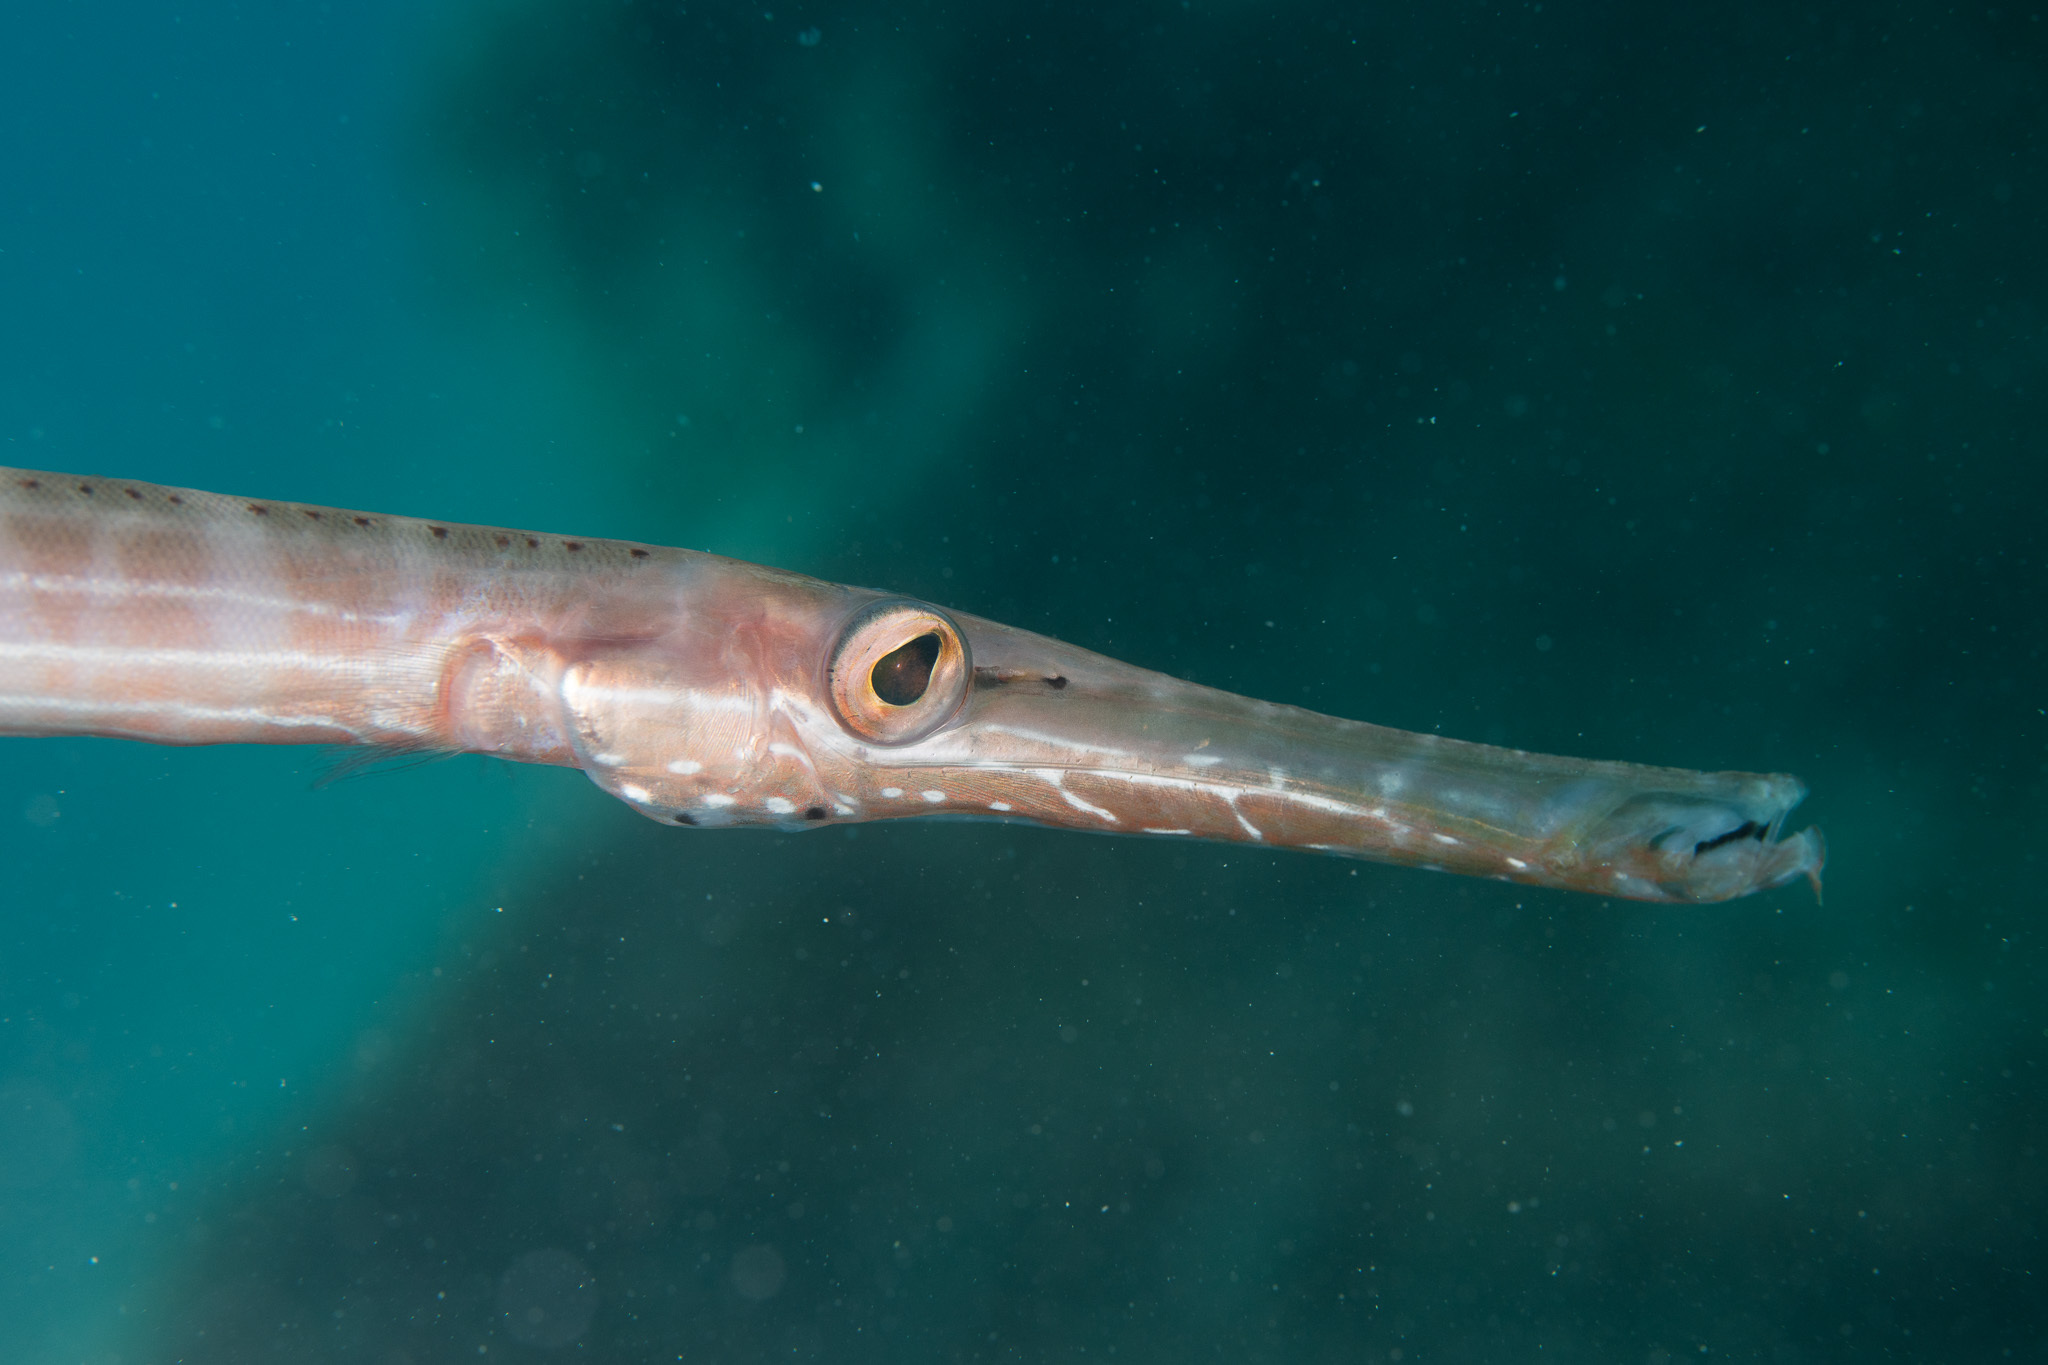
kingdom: Animalia
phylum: Chordata
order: Syngnathiformes
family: Aulostomidae
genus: Aulostomus
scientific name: Aulostomus maculatus
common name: West atlantic trumpetfish
